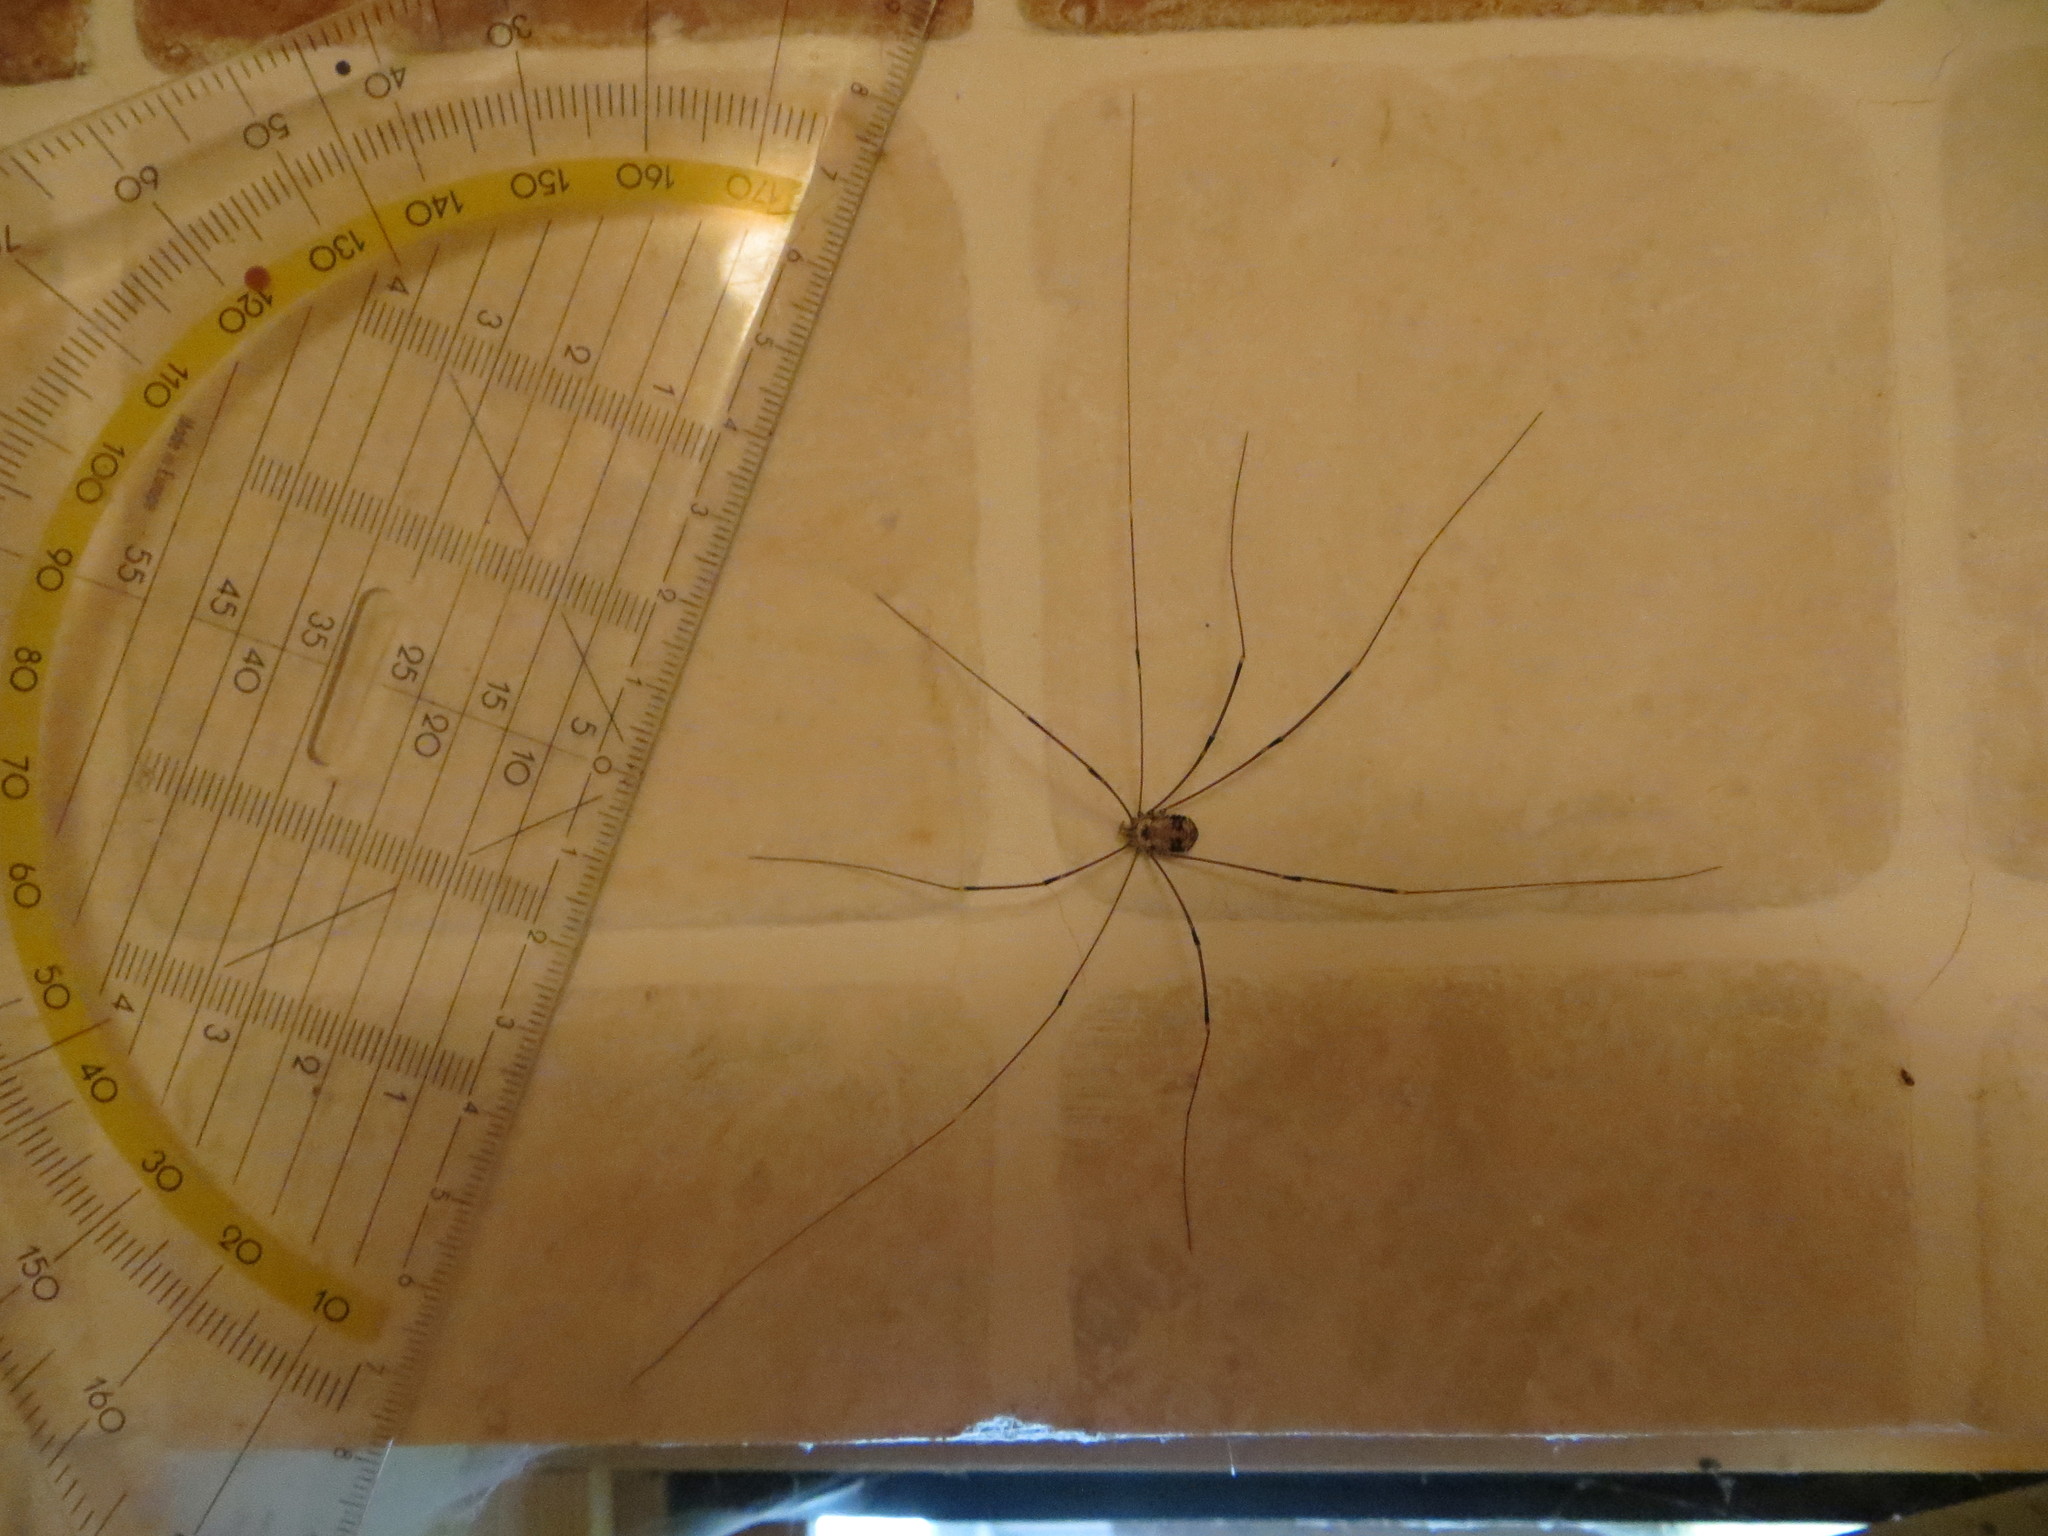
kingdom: Animalia
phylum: Arthropoda
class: Arachnida
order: Opiliones
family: Sclerosomatidae
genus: Leiobunum
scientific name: Leiobunum limbatum
